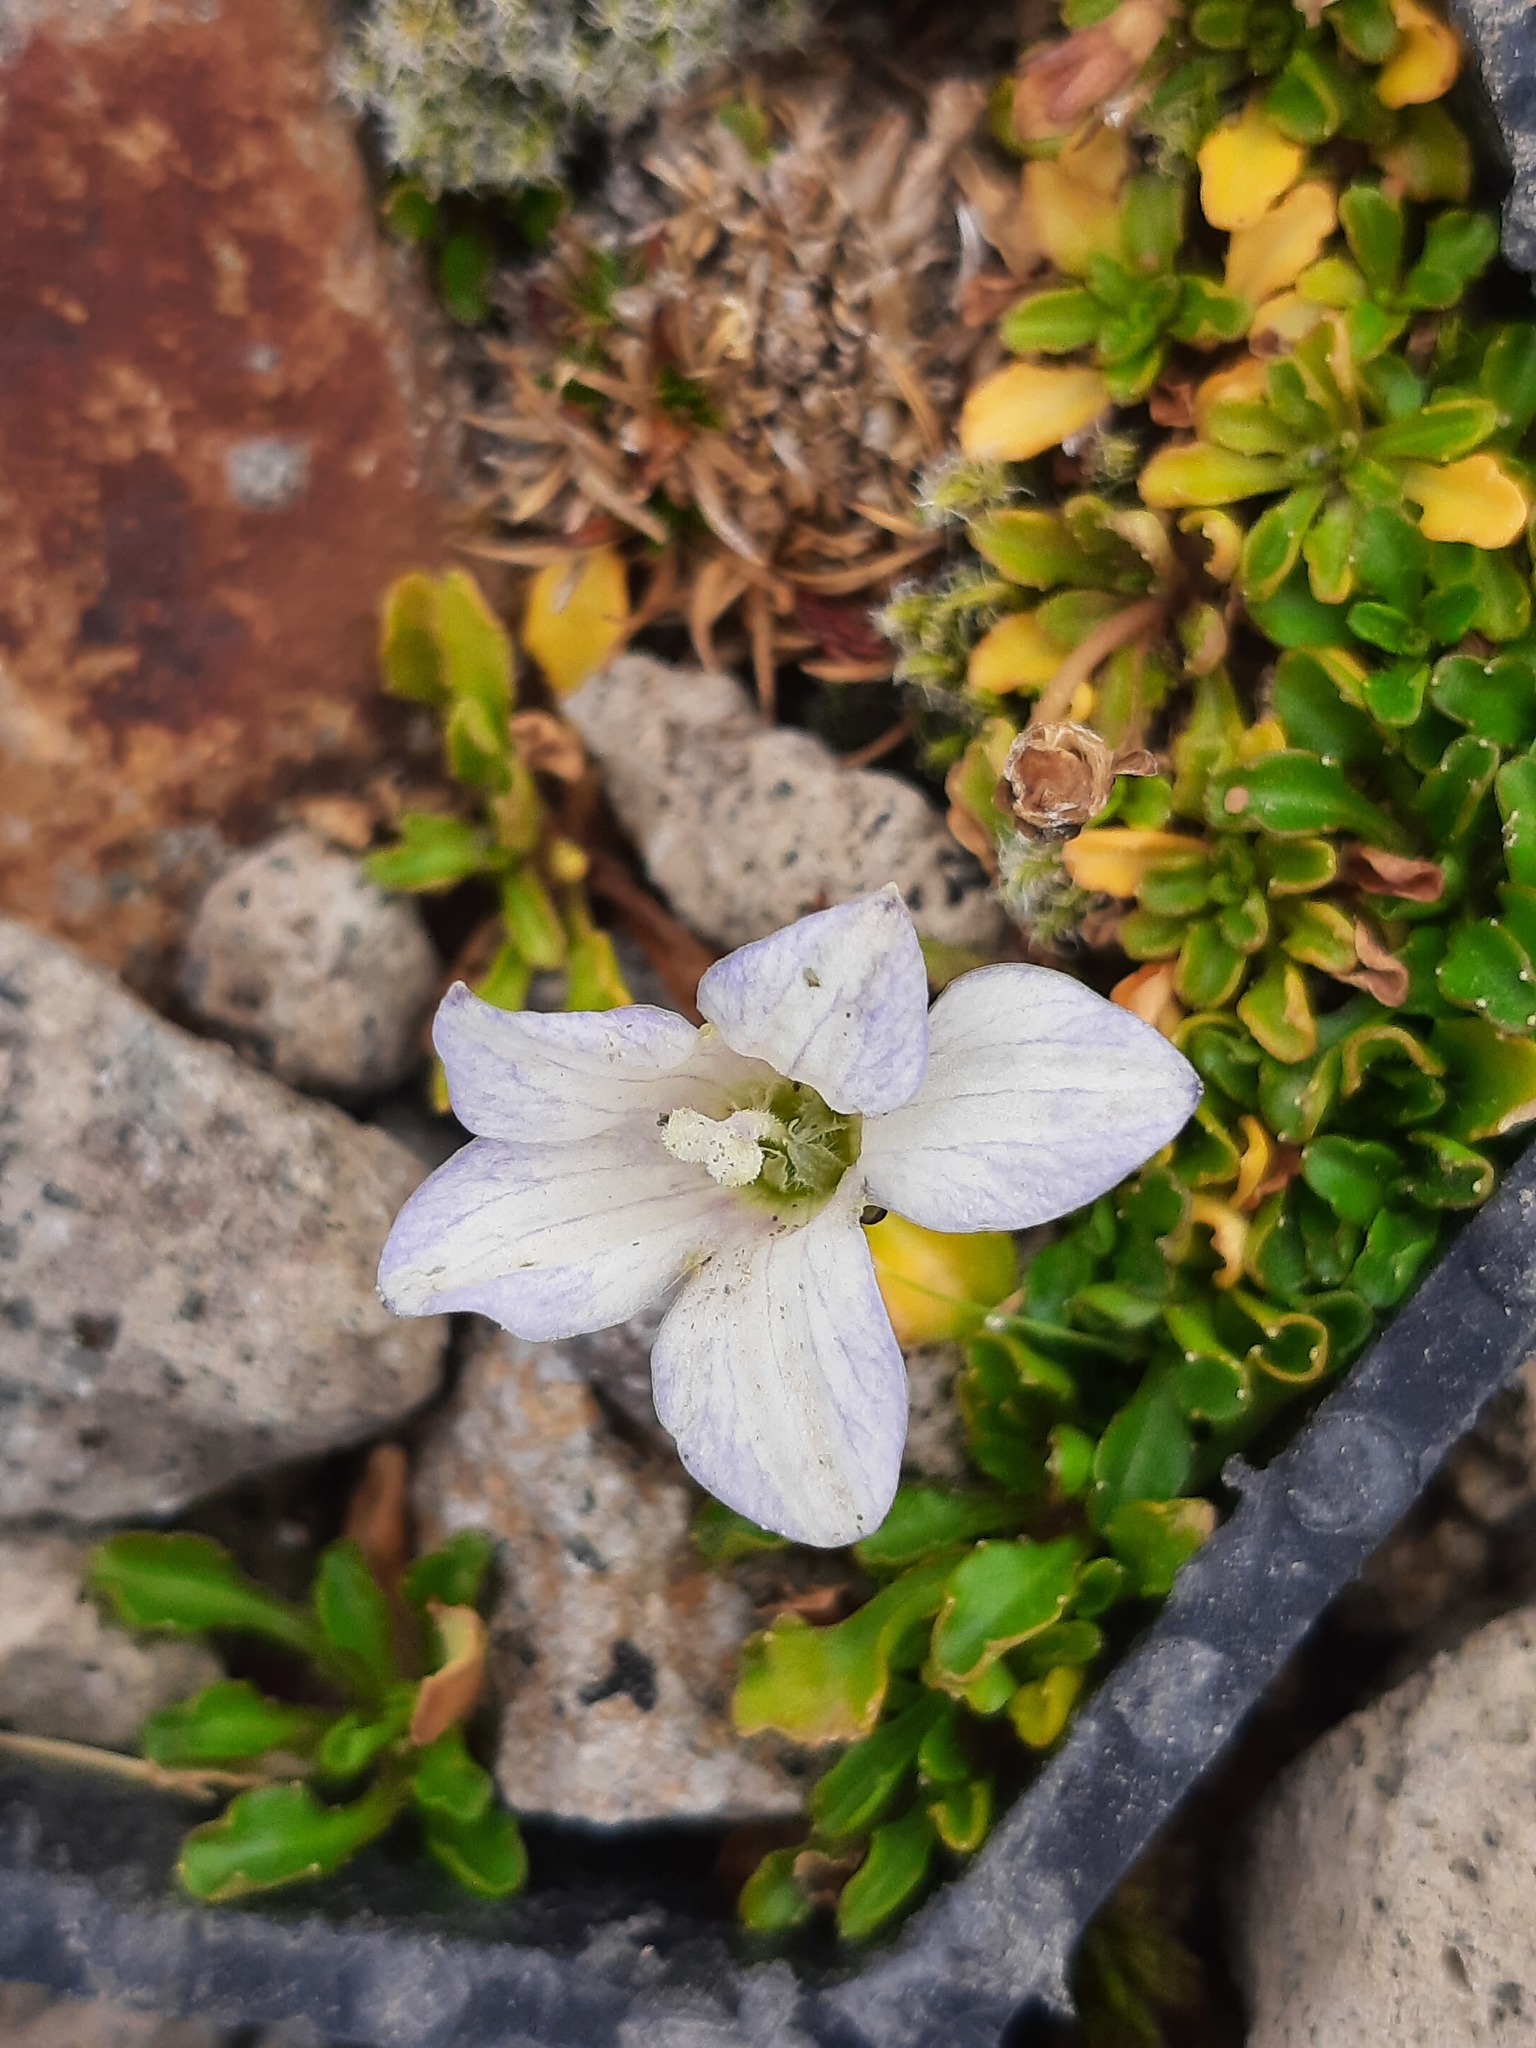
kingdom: Plantae
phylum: Tracheophyta
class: Magnoliopsida
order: Asterales
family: Campanulaceae
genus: Wahlenbergia
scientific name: Wahlenbergia pygmaea
